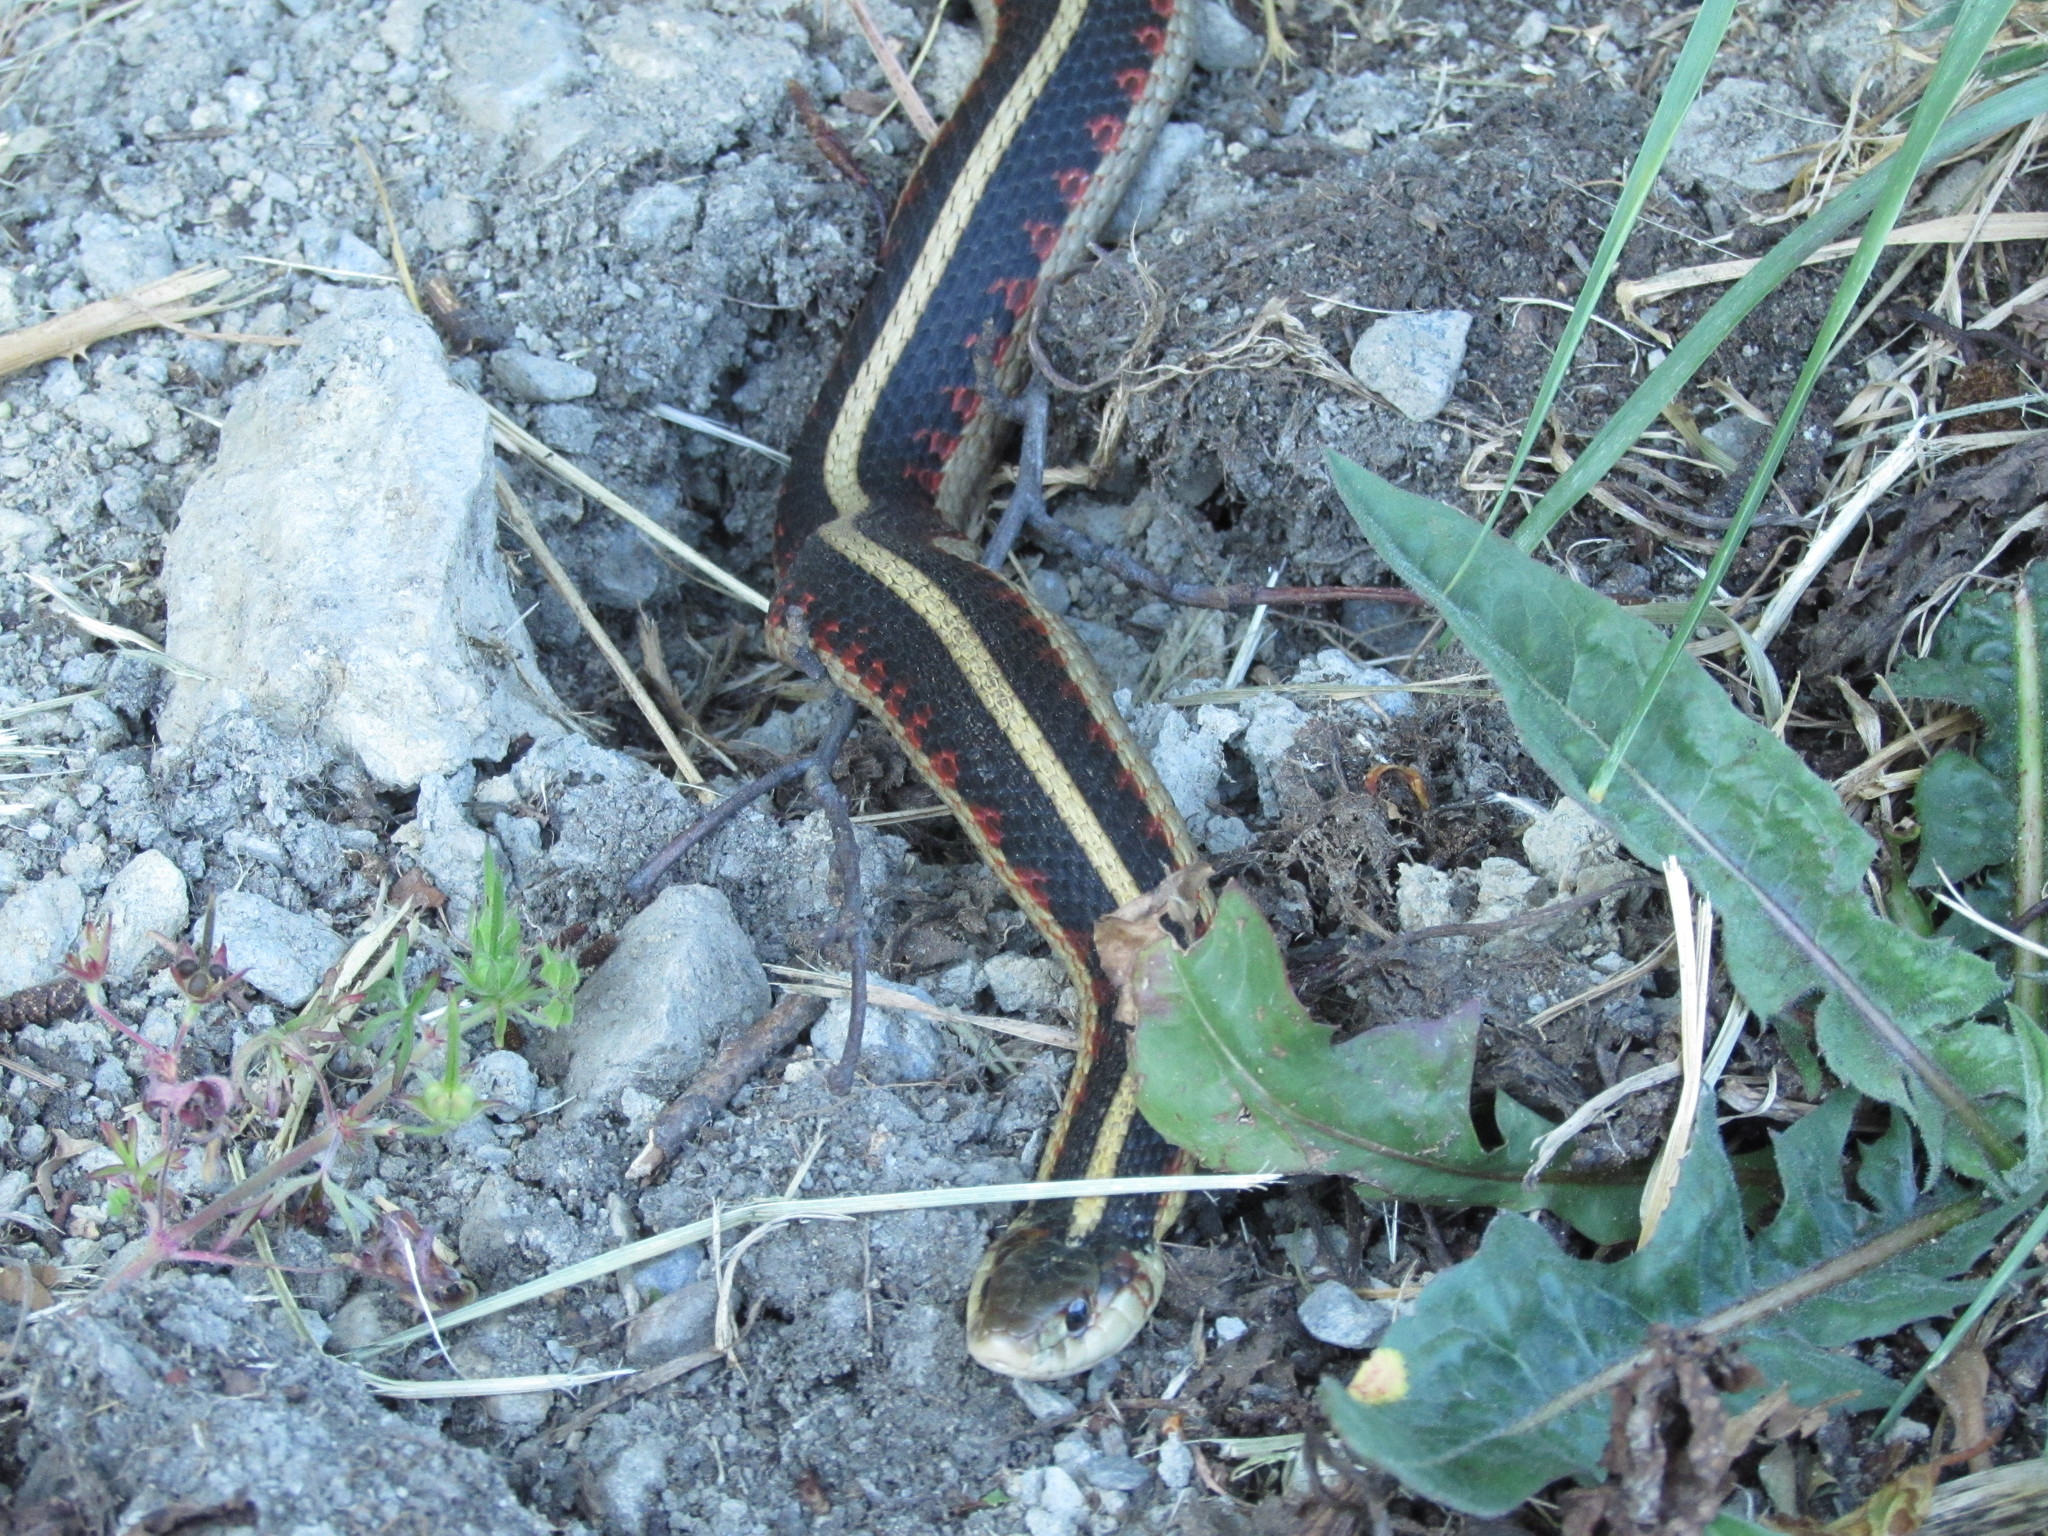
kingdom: Animalia
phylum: Chordata
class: Squamata
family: Colubridae
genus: Thamnophis
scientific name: Thamnophis sirtalis
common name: Common garter snake
